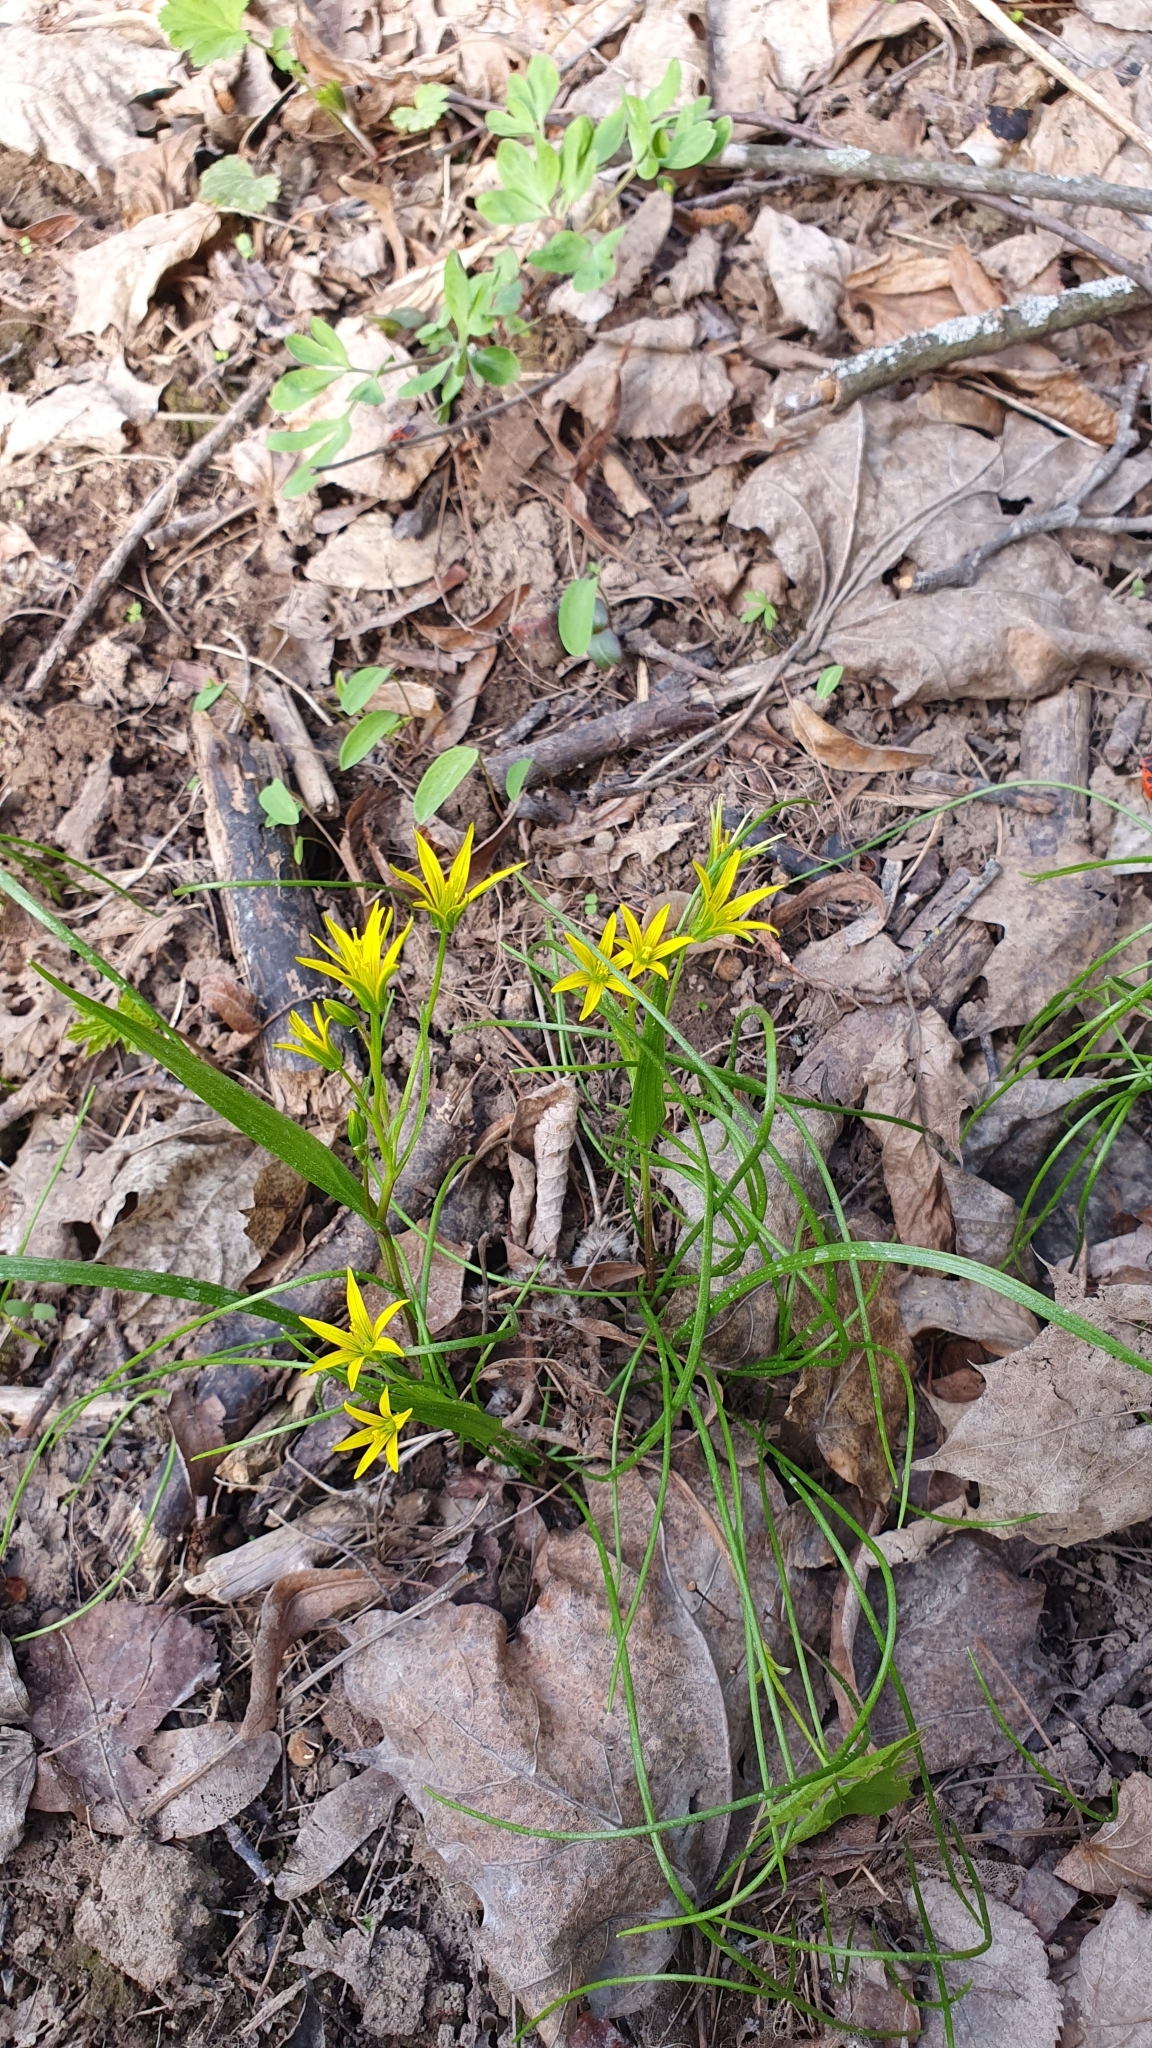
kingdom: Plantae
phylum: Tracheophyta
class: Liliopsida
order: Liliales
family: Liliaceae
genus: Gagea
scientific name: Gagea minima
